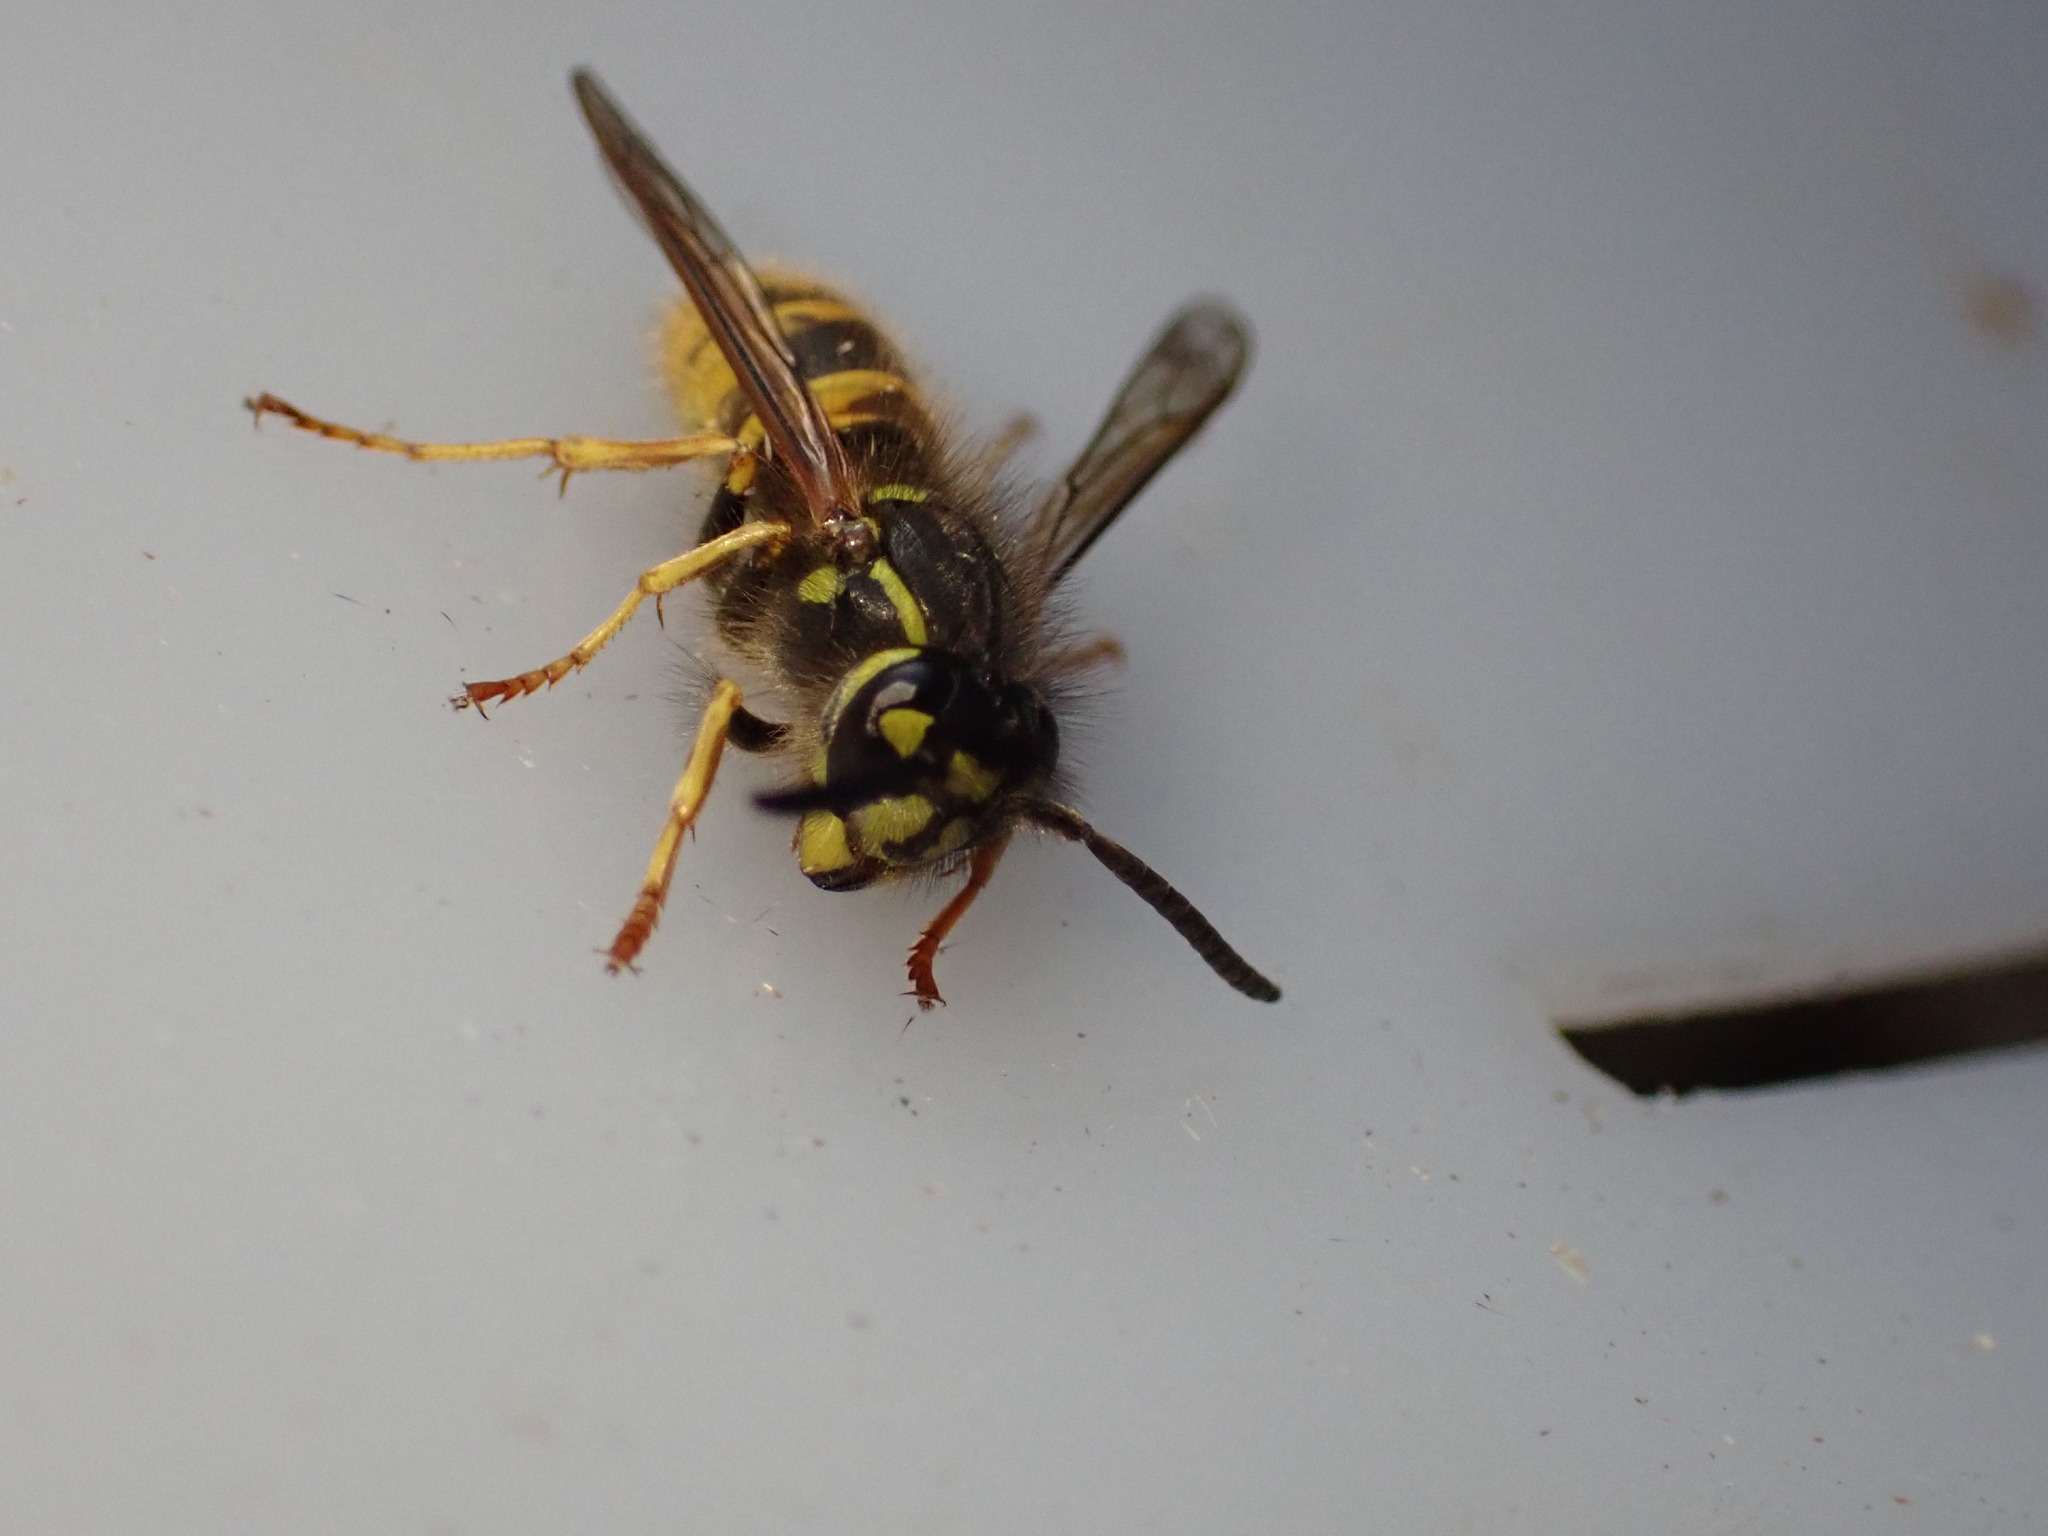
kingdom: Animalia
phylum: Arthropoda
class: Insecta
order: Hymenoptera
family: Vespidae
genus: Vespula
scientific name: Vespula vulgaris
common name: Common wasp
